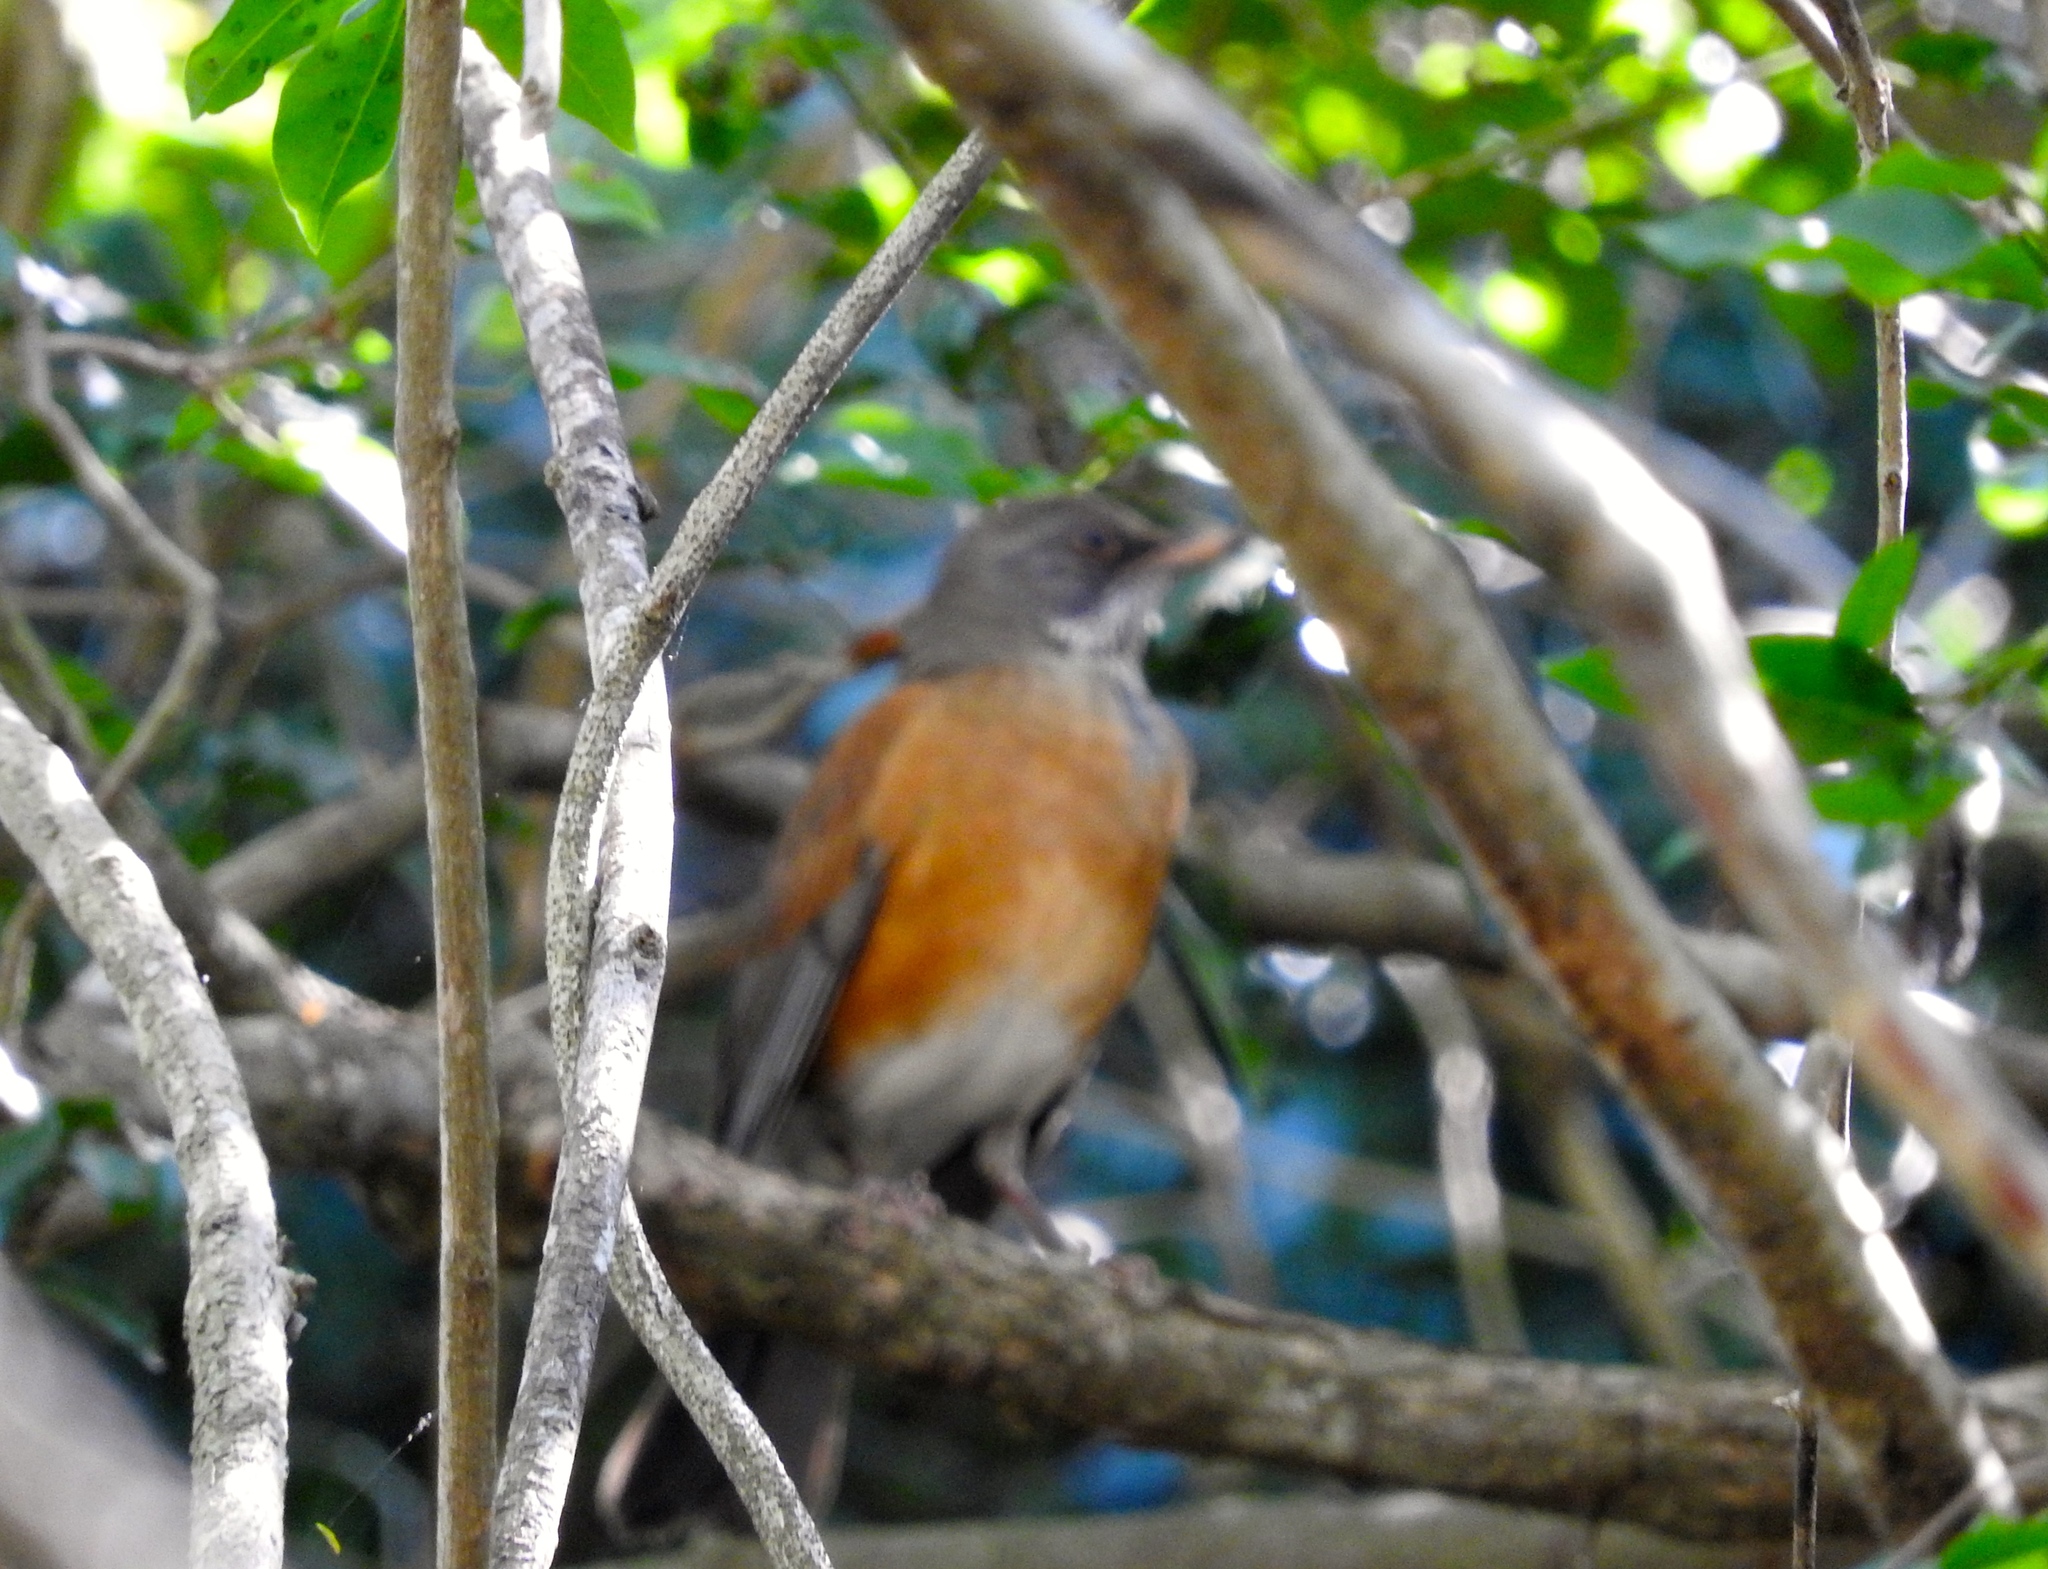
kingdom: Animalia
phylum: Chordata
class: Aves
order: Passeriformes
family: Turdidae
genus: Turdus
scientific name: Turdus rufopalliatus
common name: Rufous-backed robin
